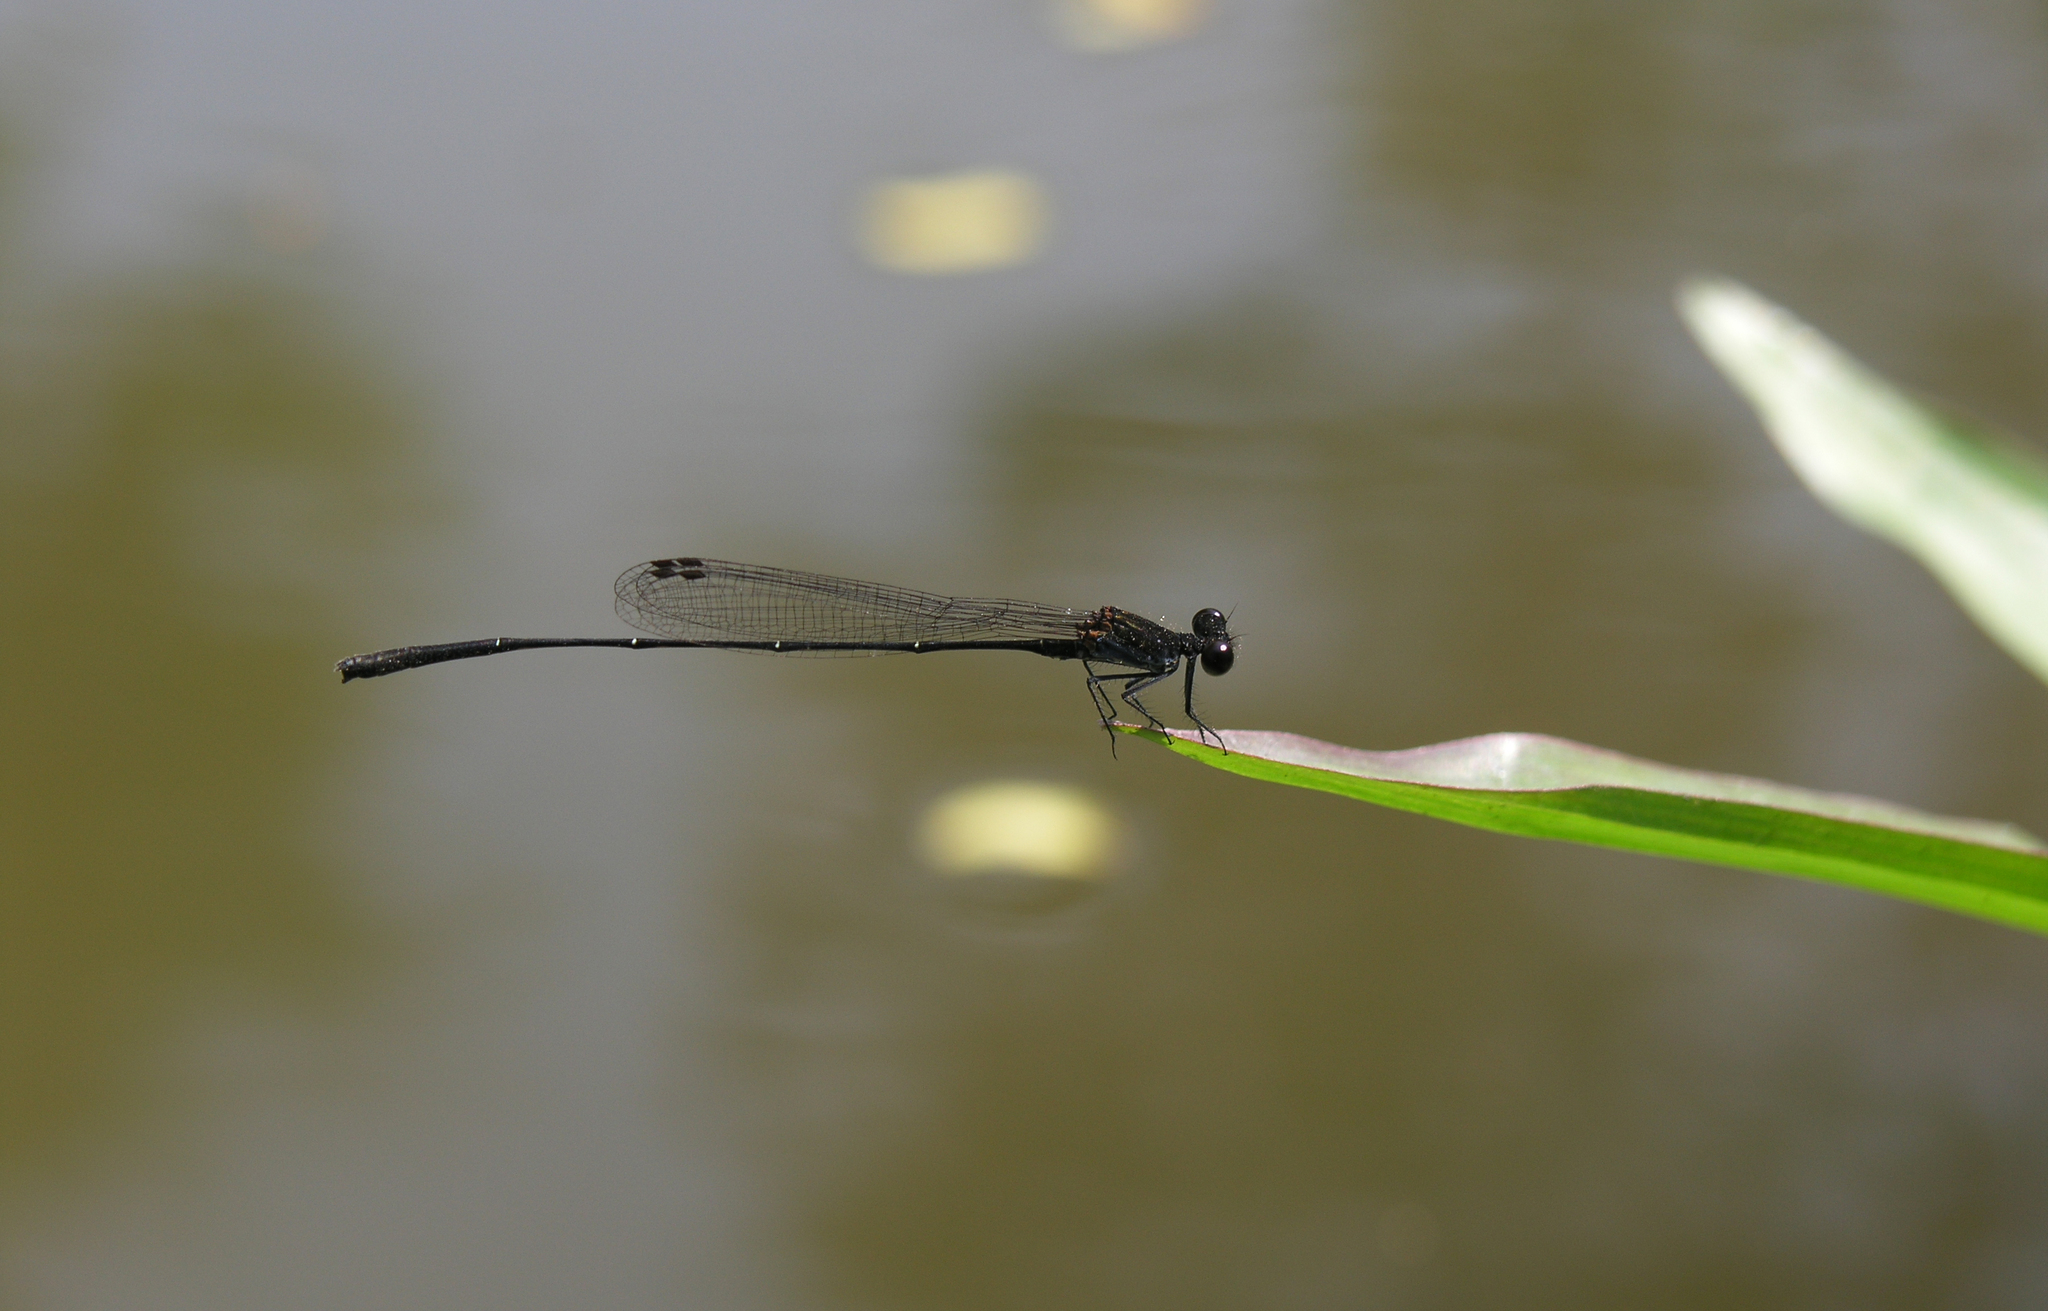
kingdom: Animalia
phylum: Arthropoda
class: Insecta
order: Odonata
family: Platycnemididae
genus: Prodasineura
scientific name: Prodasineura autumnalis
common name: Black threadtail
